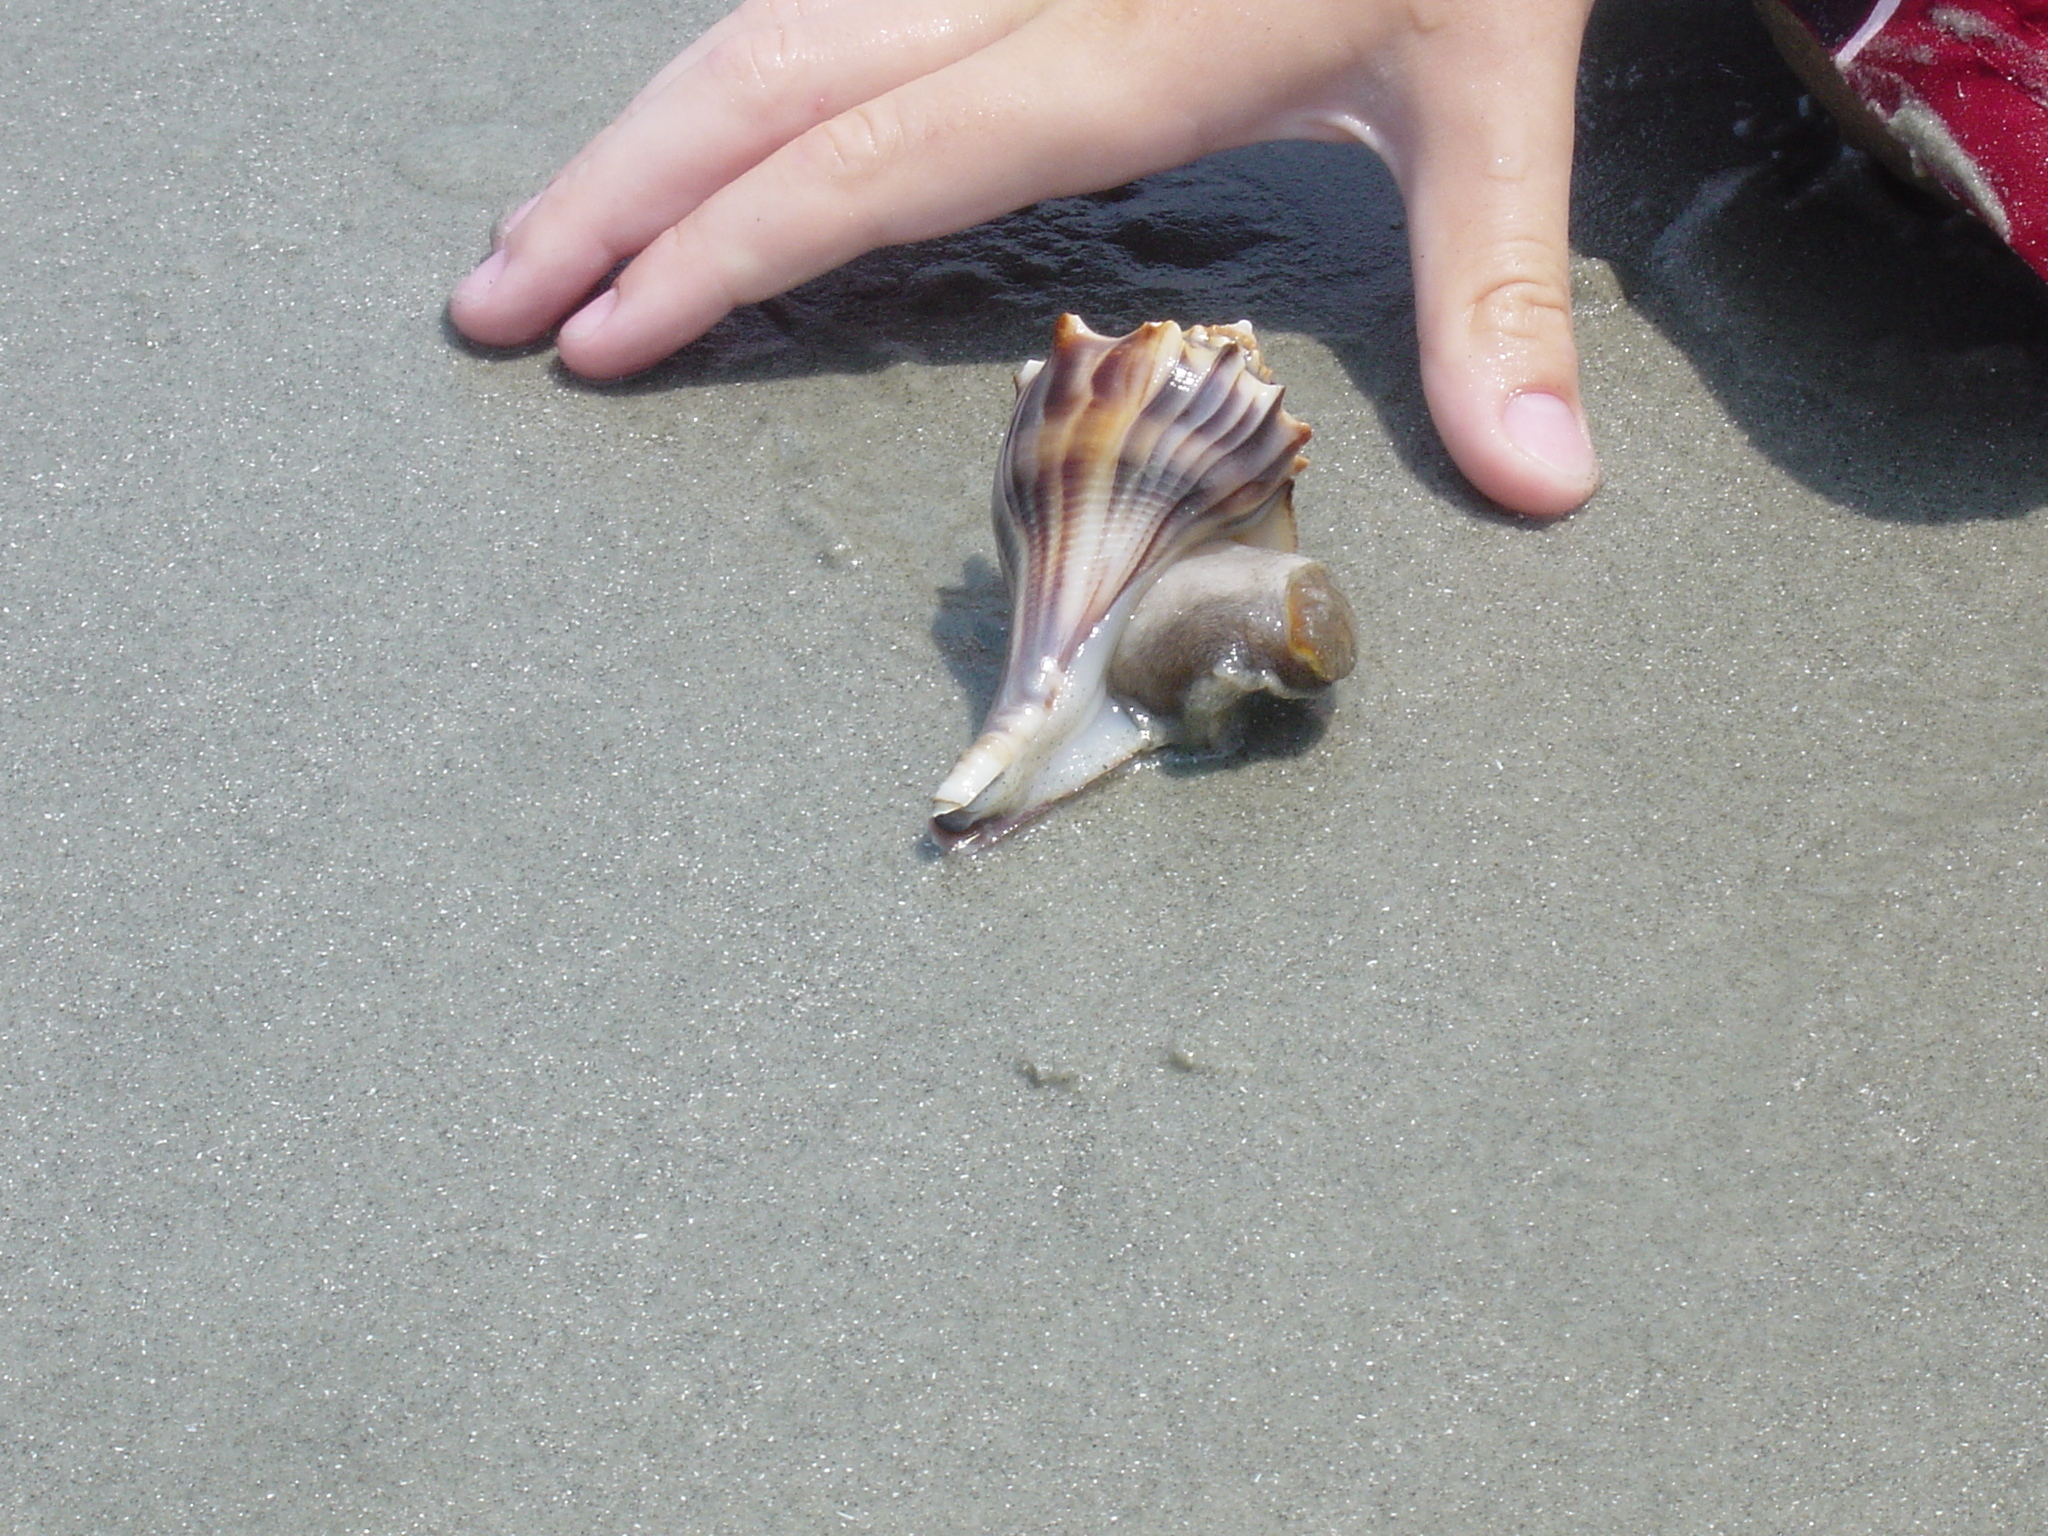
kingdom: Animalia
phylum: Mollusca
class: Gastropoda
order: Neogastropoda
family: Busyconidae
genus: Busycon
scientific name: Busycon carica
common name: Knobbed whelk
